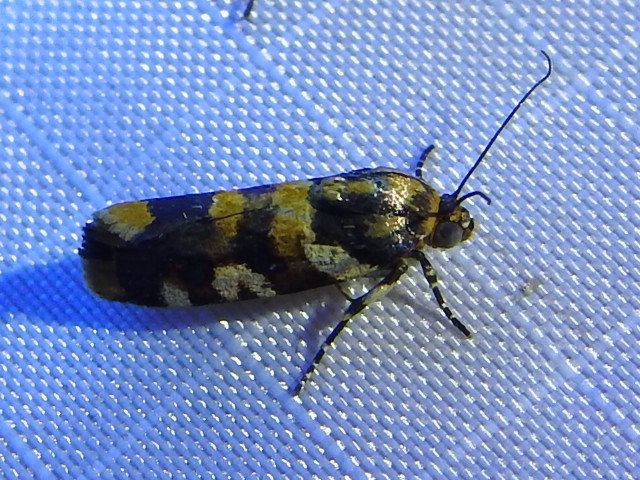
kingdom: Animalia
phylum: Arthropoda
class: Insecta
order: Lepidoptera
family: Noctuidae
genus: Acontia
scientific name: Acontia dama
